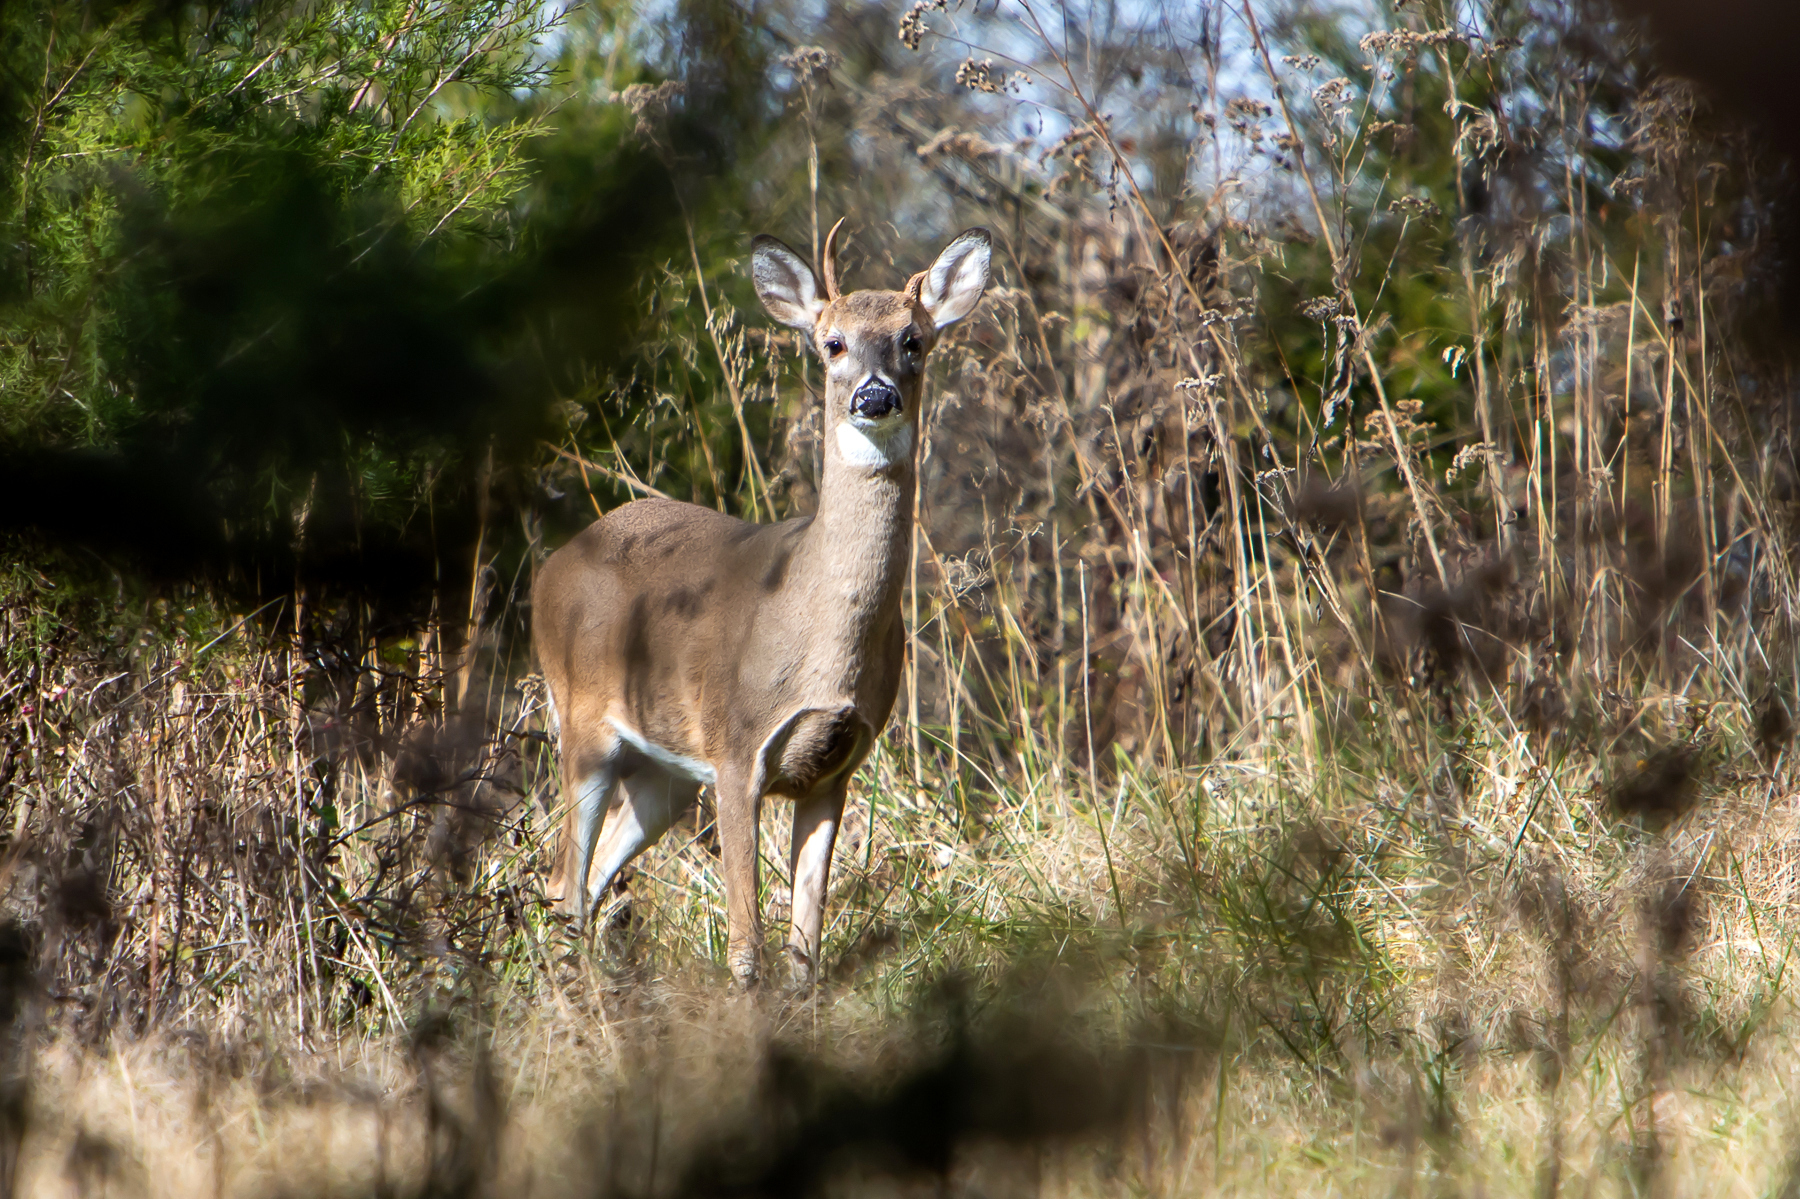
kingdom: Animalia
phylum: Chordata
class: Mammalia
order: Artiodactyla
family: Cervidae
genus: Odocoileus
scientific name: Odocoileus virginianus
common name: White-tailed deer
